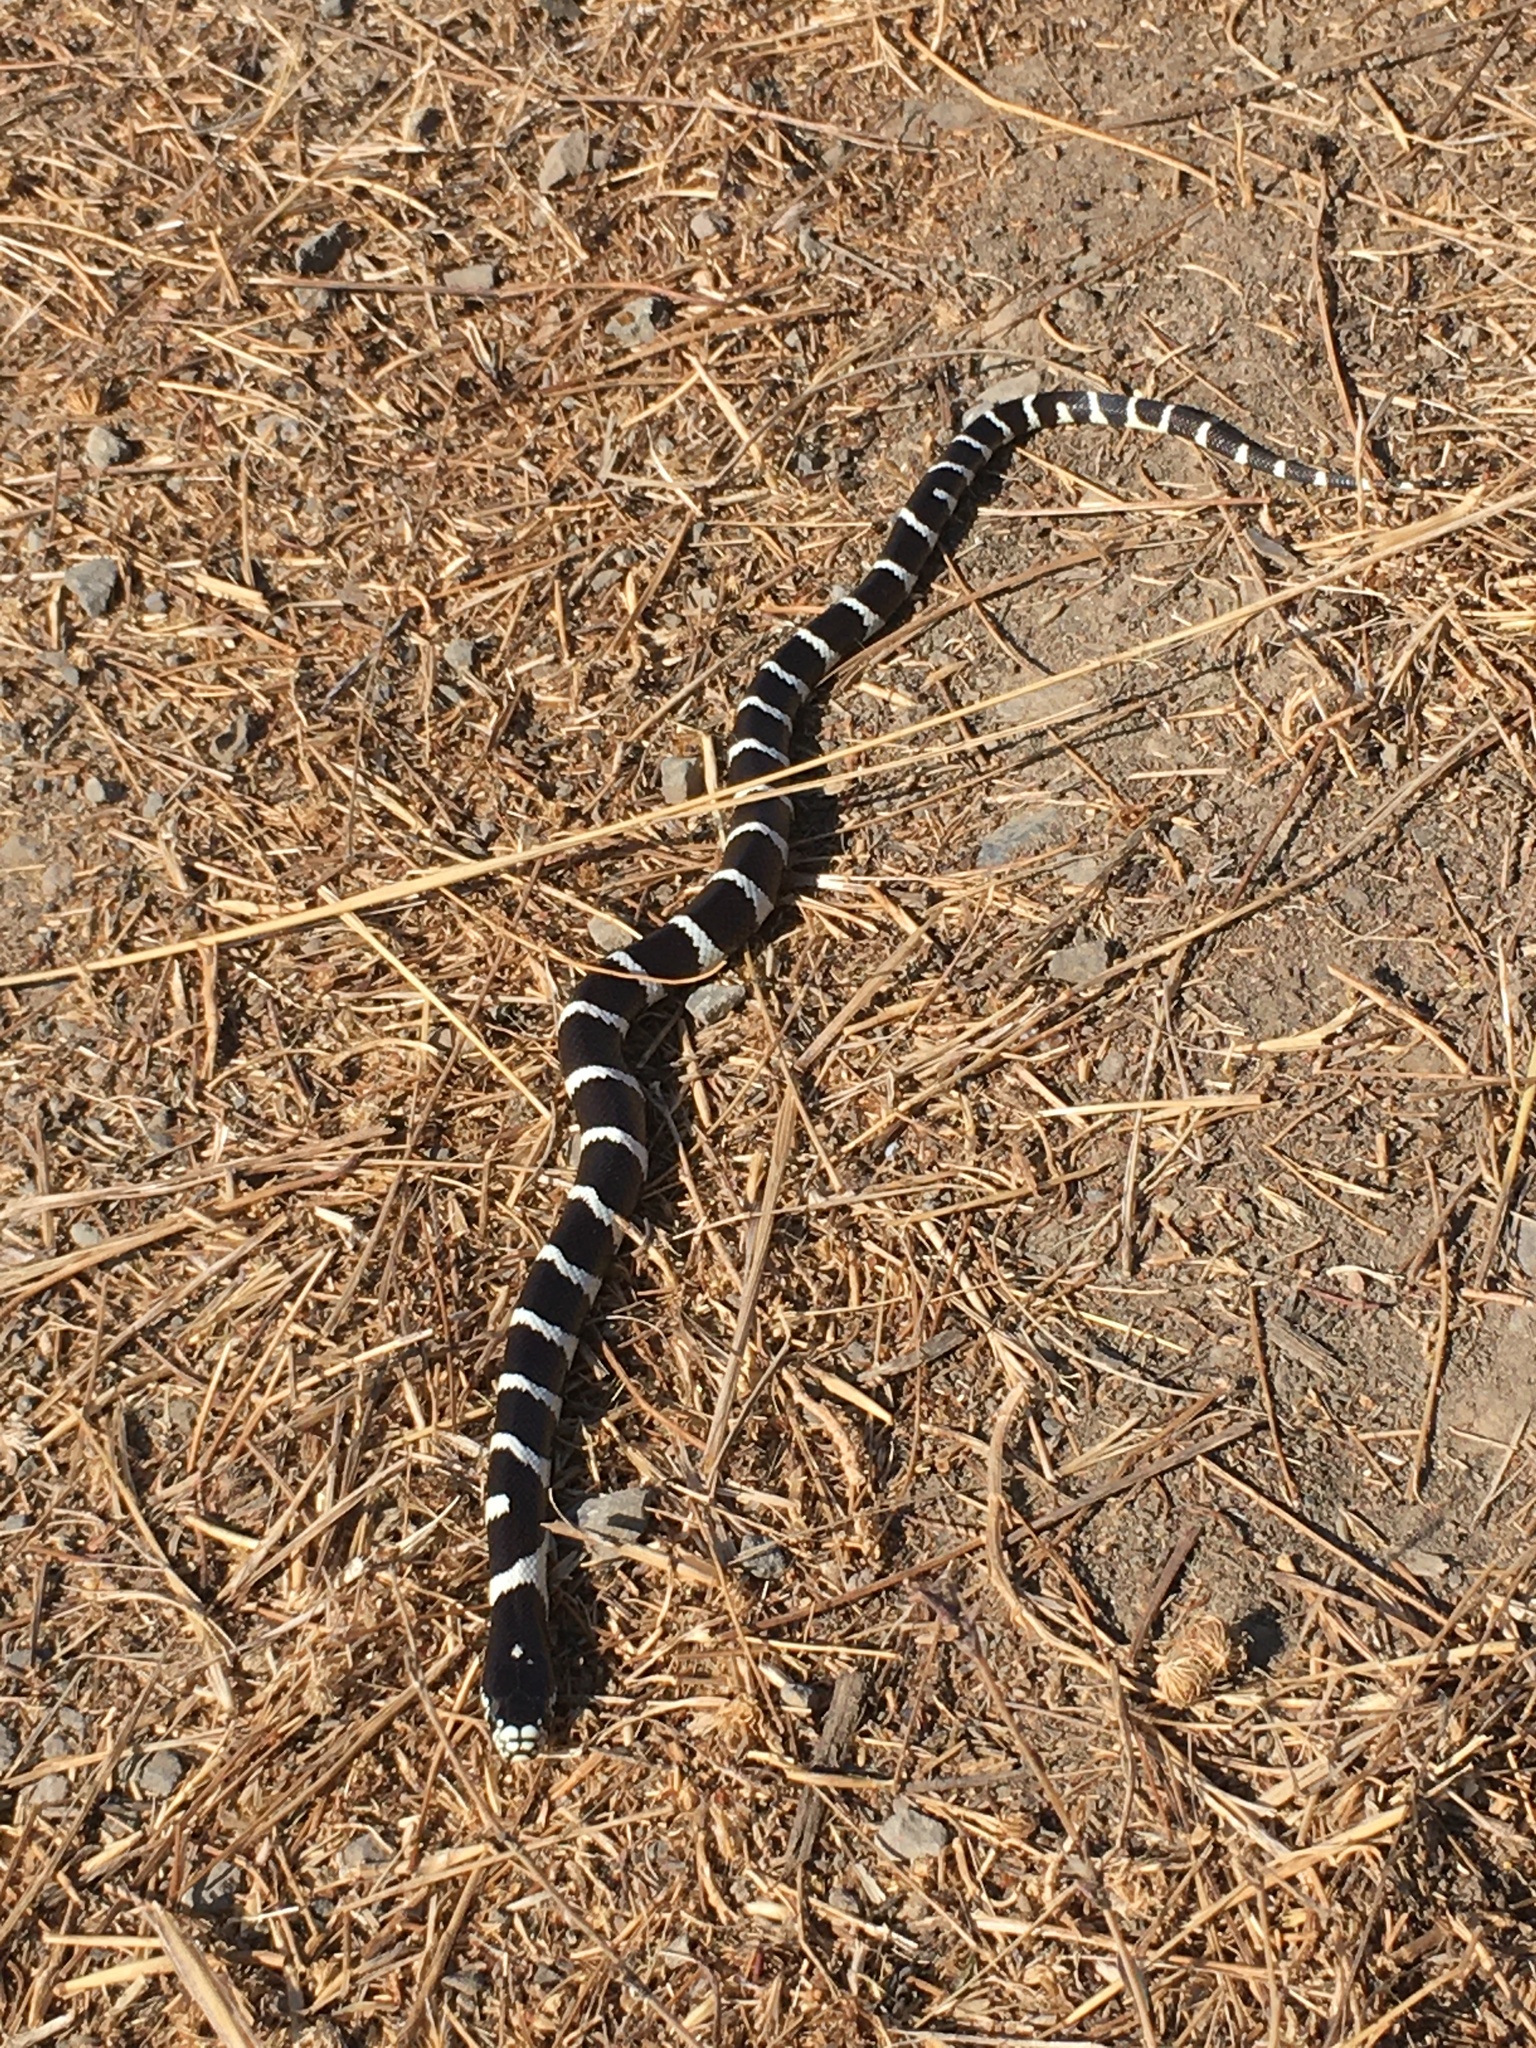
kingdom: Animalia
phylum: Chordata
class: Squamata
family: Colubridae
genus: Lampropeltis
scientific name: Lampropeltis californiae
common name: California kingsnake
